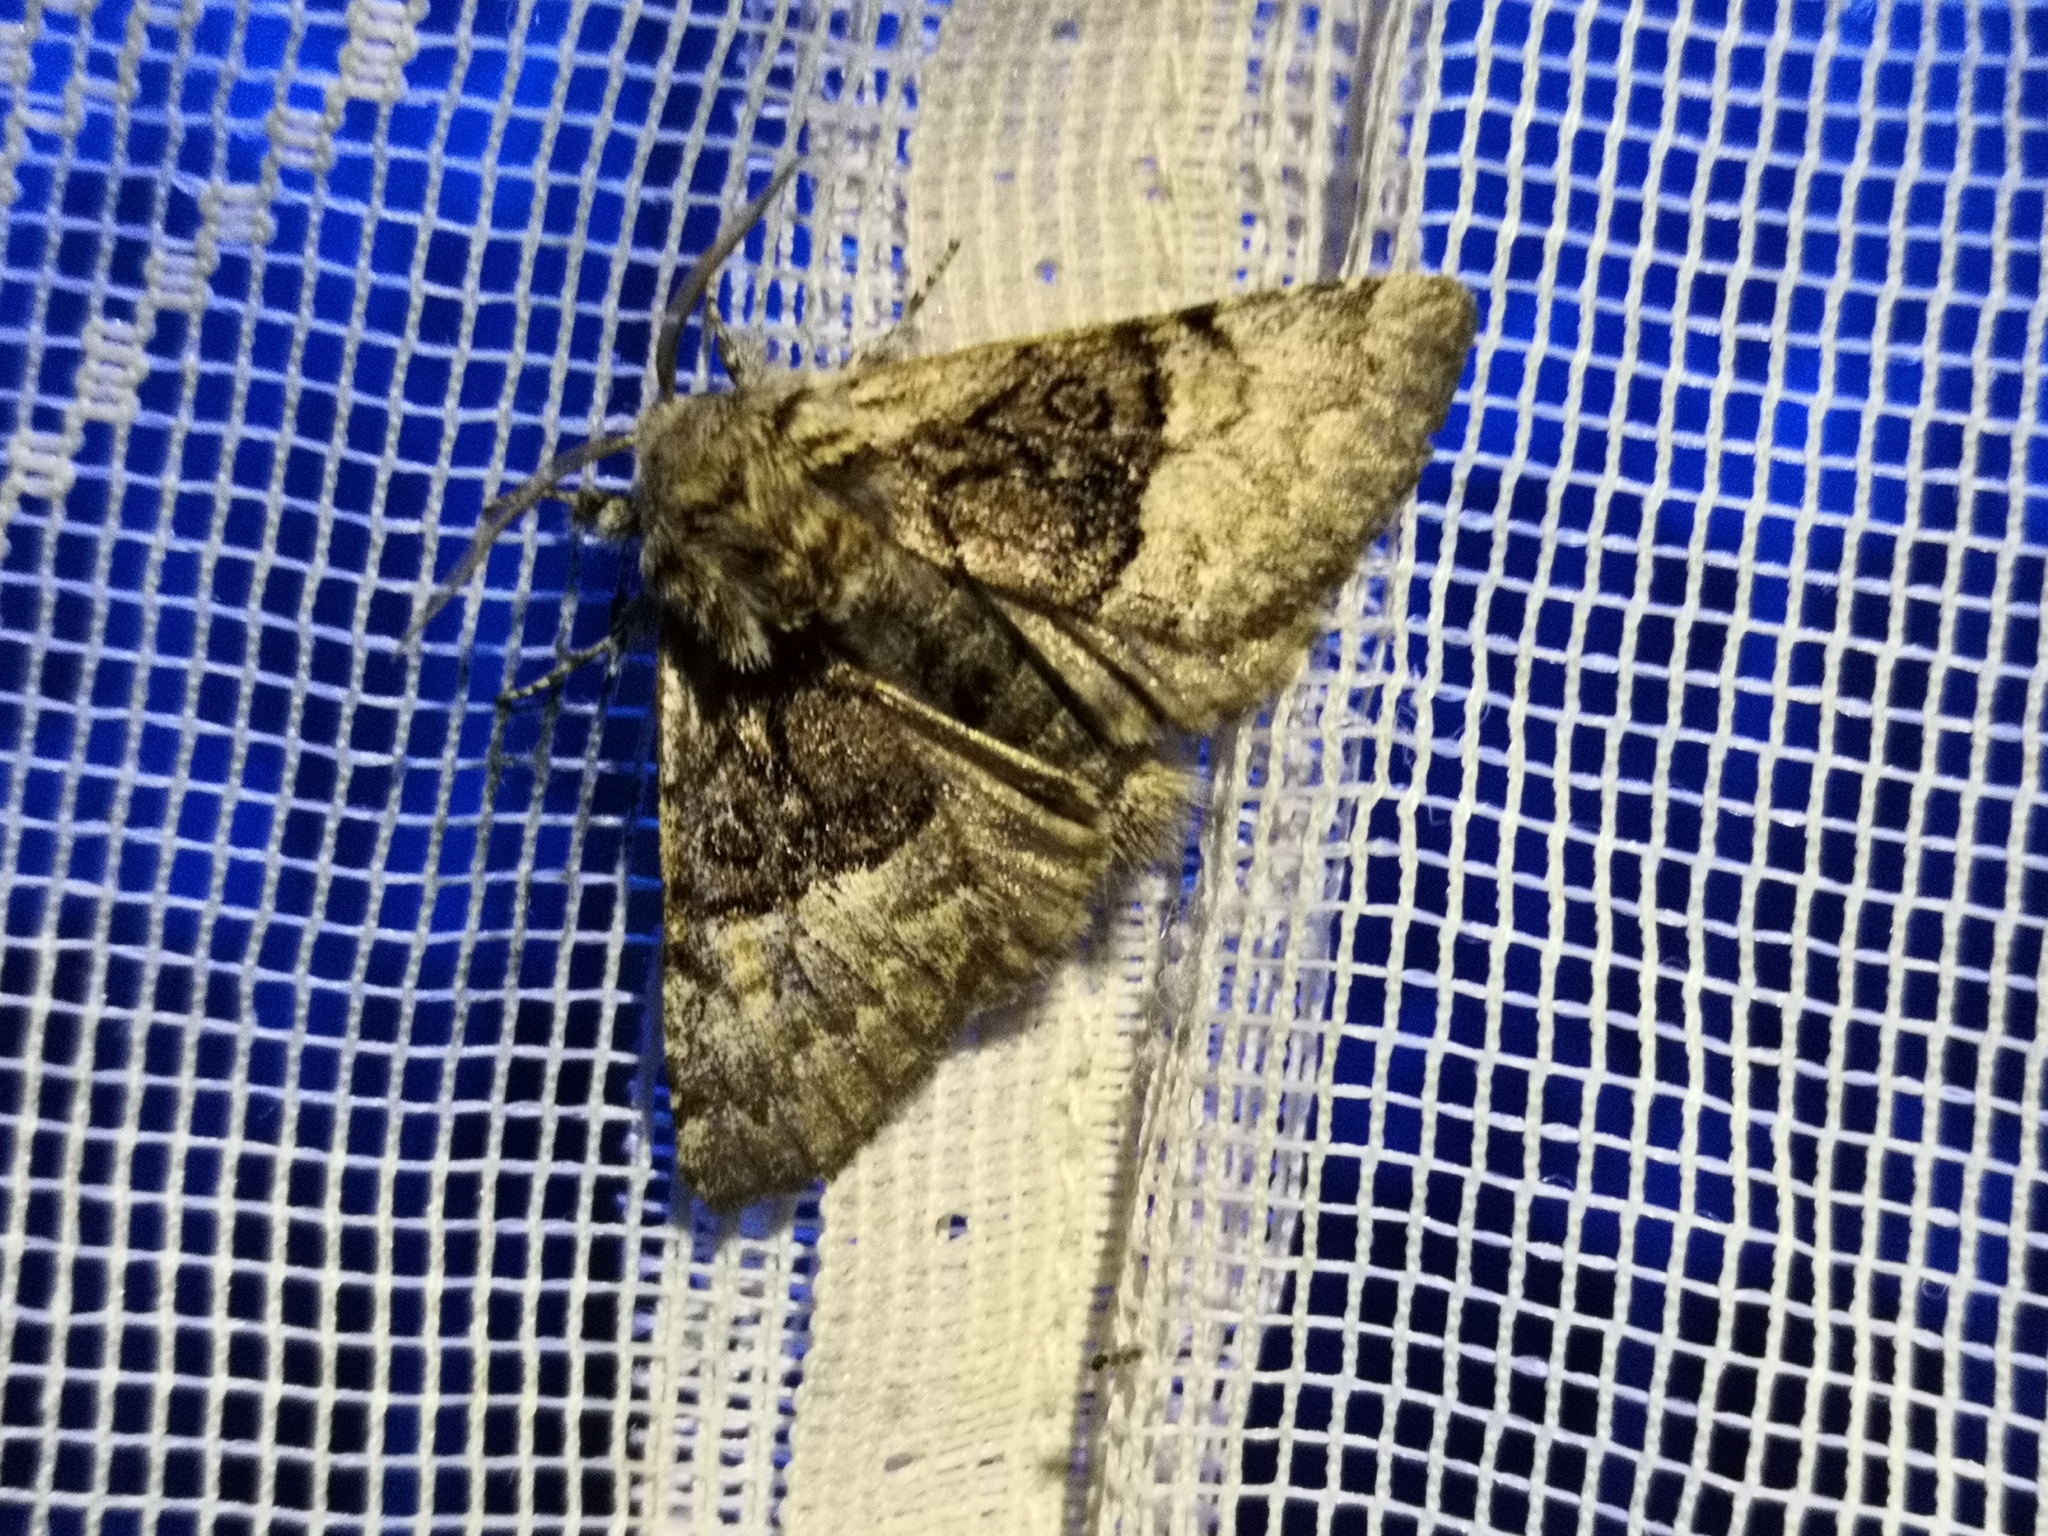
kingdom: Animalia
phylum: Arthropoda
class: Insecta
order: Lepidoptera
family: Noctuidae
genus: Colocasia
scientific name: Colocasia coryli
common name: Nut-tree tussock
